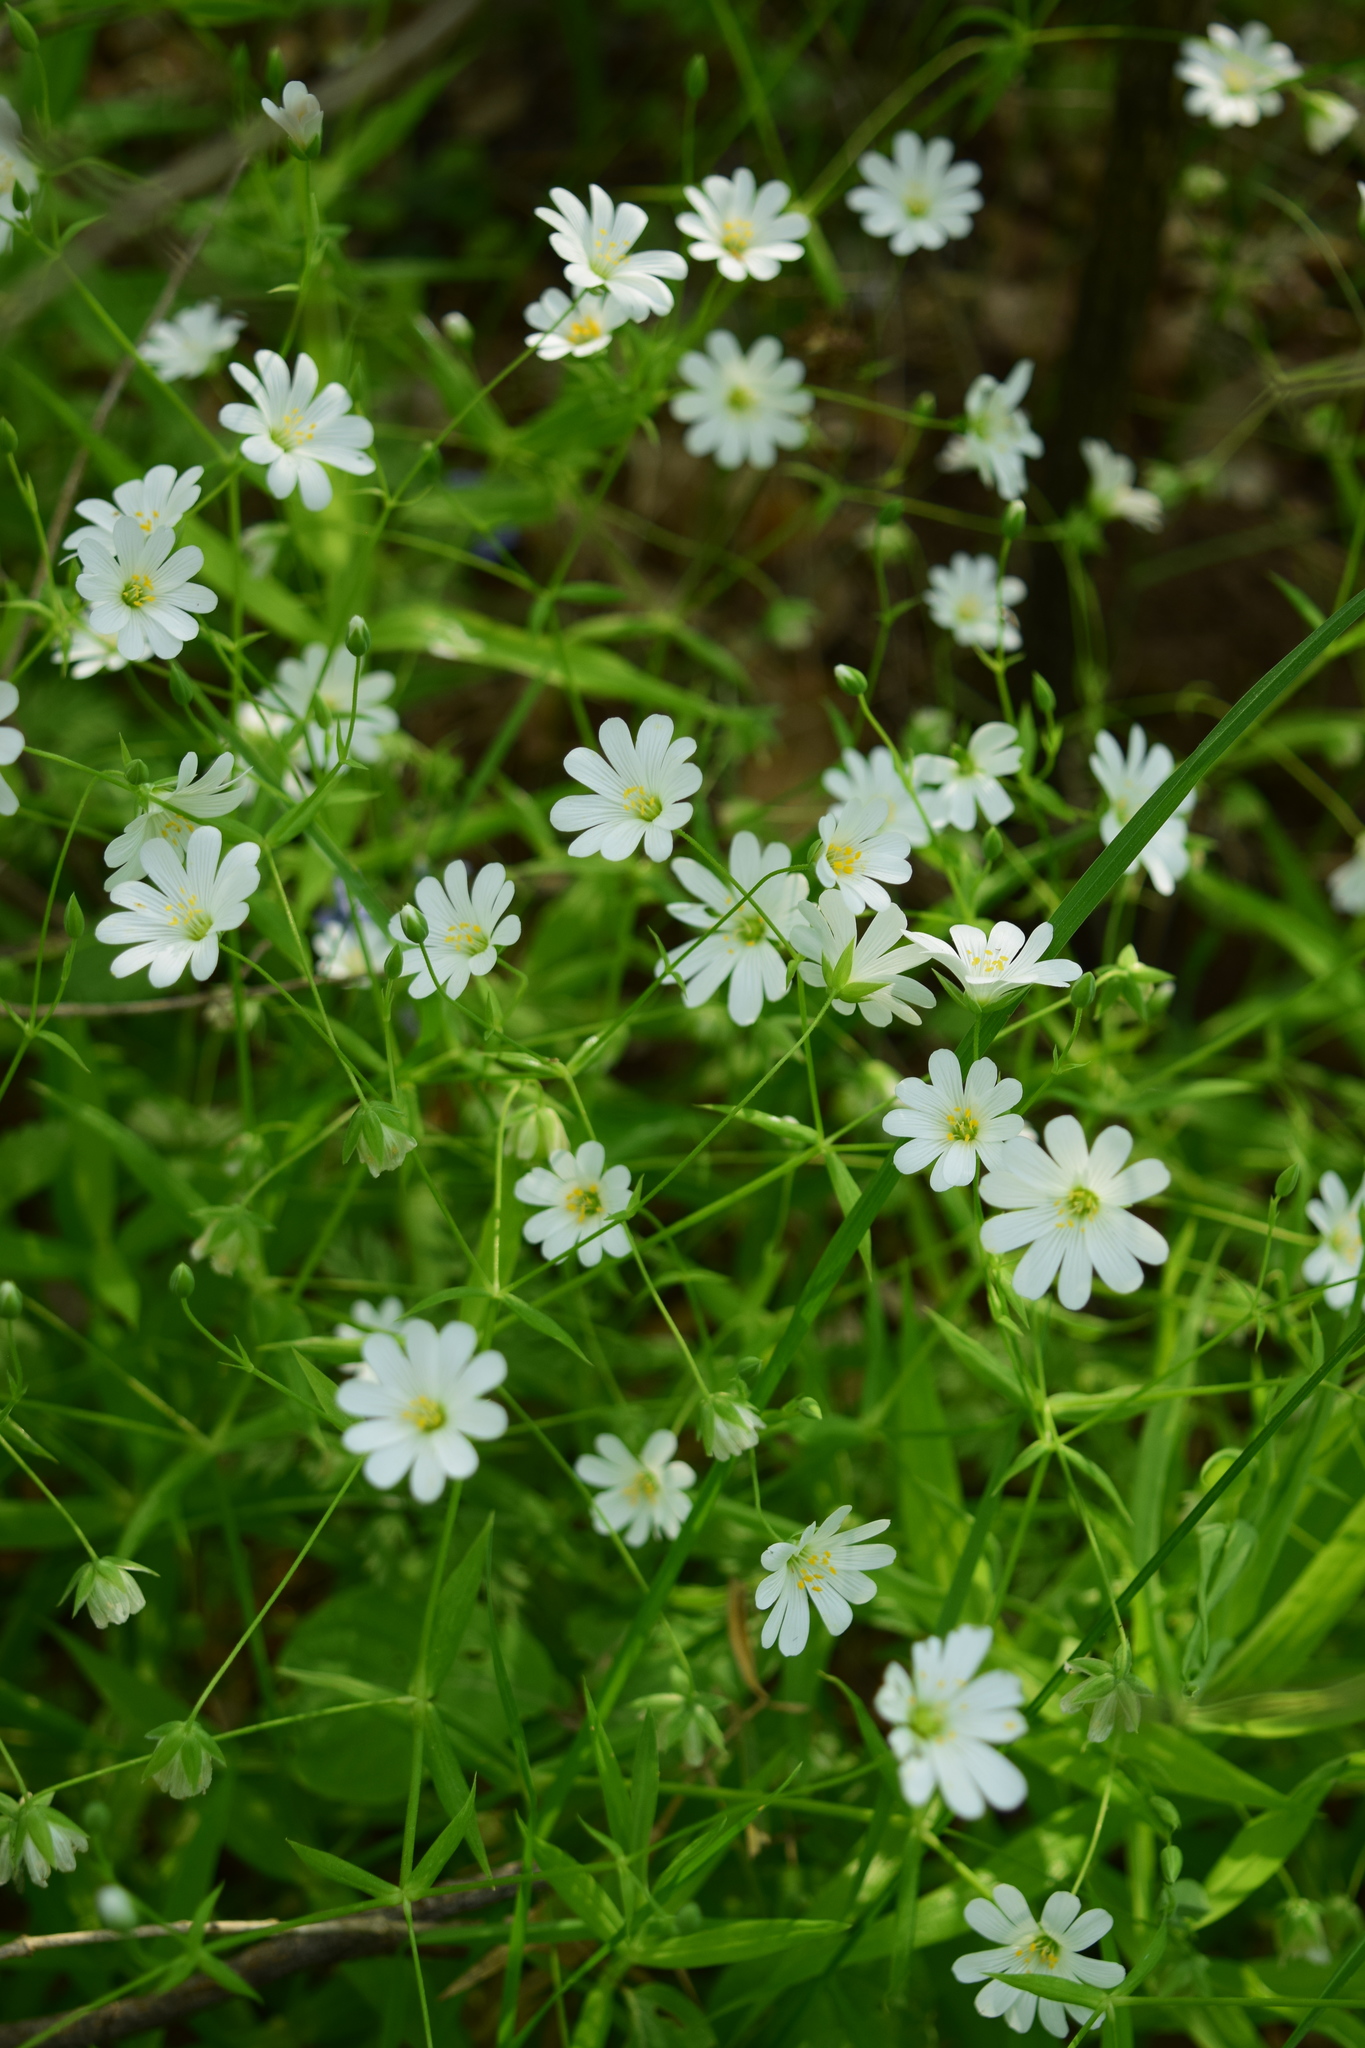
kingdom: Plantae
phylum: Tracheophyta
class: Magnoliopsida
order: Caryophyllales
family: Caryophyllaceae
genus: Rabelera
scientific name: Rabelera holostea
